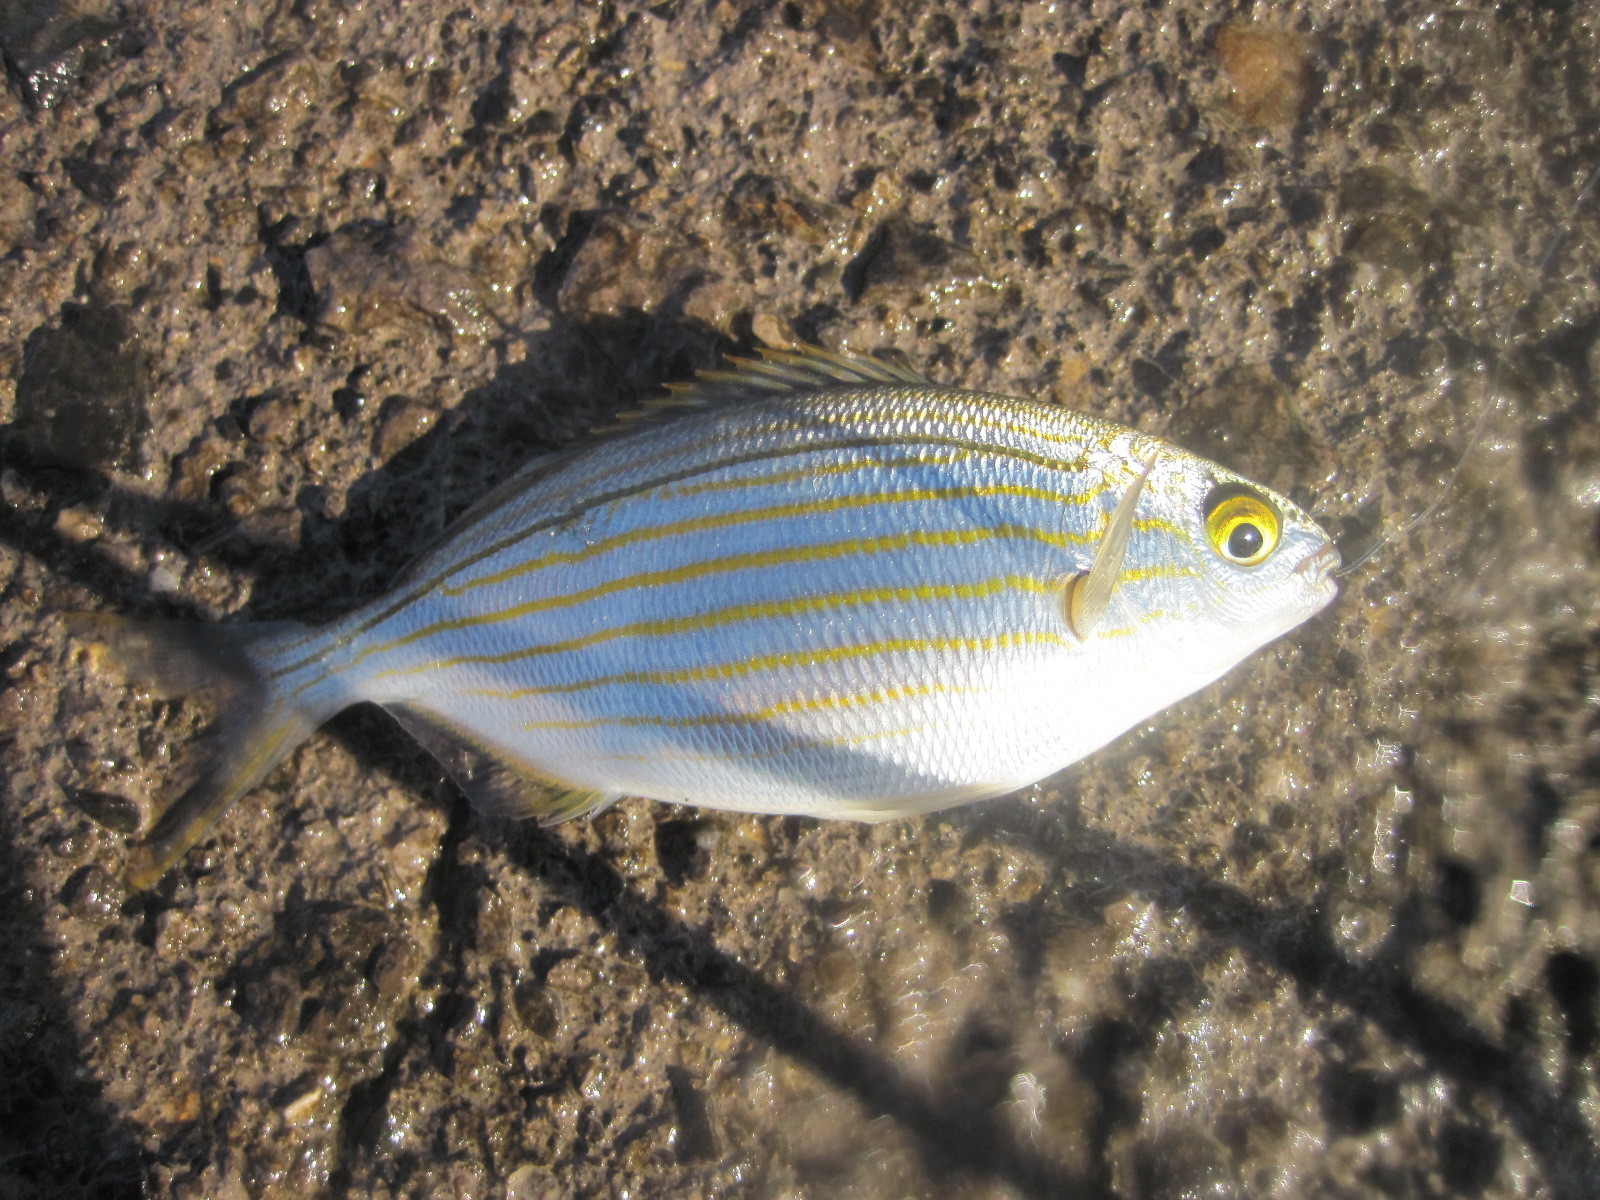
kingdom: Animalia
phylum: Chordata
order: Perciformes
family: Sparidae
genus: Sarpa
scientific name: Sarpa salpa
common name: Salema
